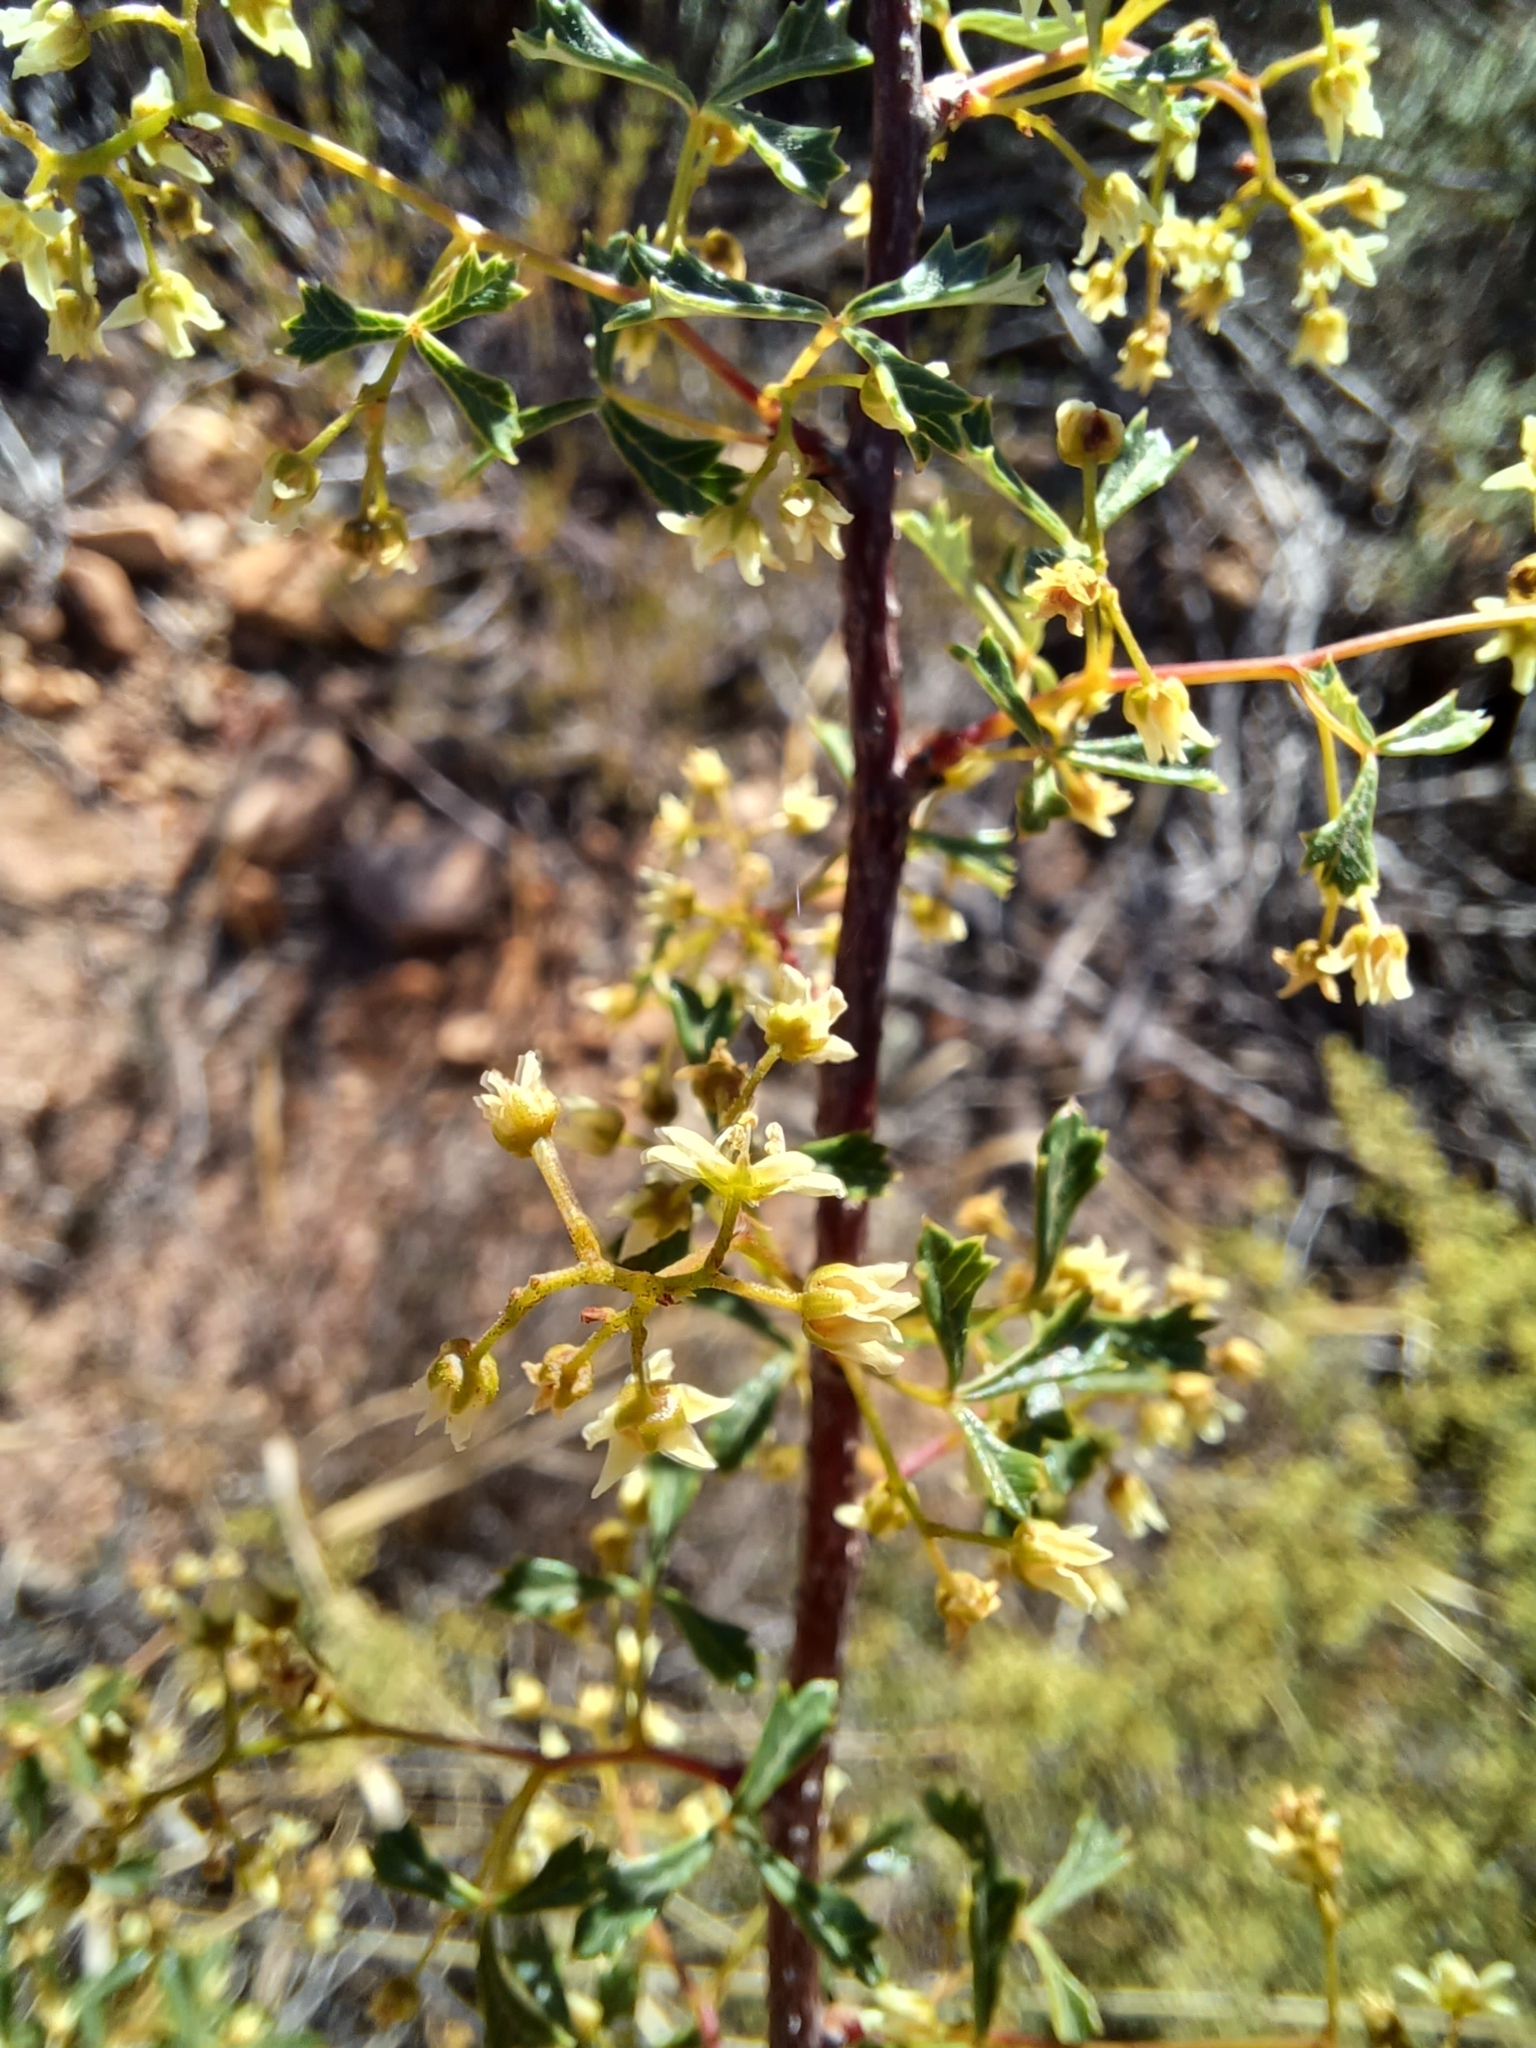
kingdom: Plantae
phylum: Tracheophyta
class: Magnoliopsida
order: Sapindales
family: Anacardiaceae
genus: Searsia
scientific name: Searsia dissecta
